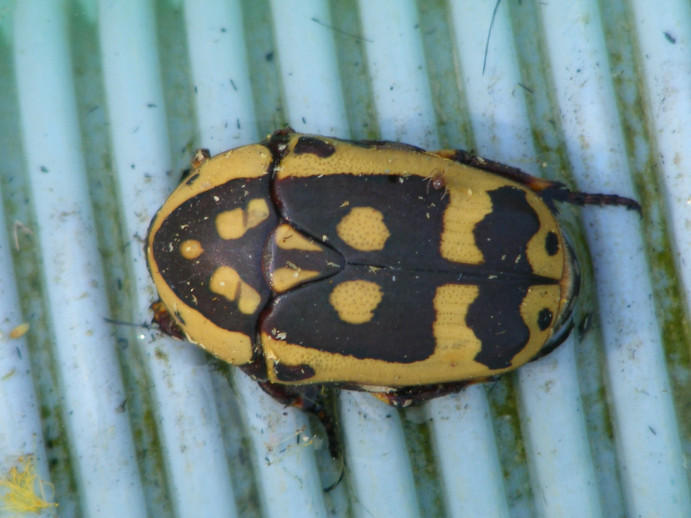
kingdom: Animalia
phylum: Arthropoda
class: Insecta
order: Coleoptera
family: Scarabaeidae
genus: Pachnoda
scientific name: Pachnoda sinuata
